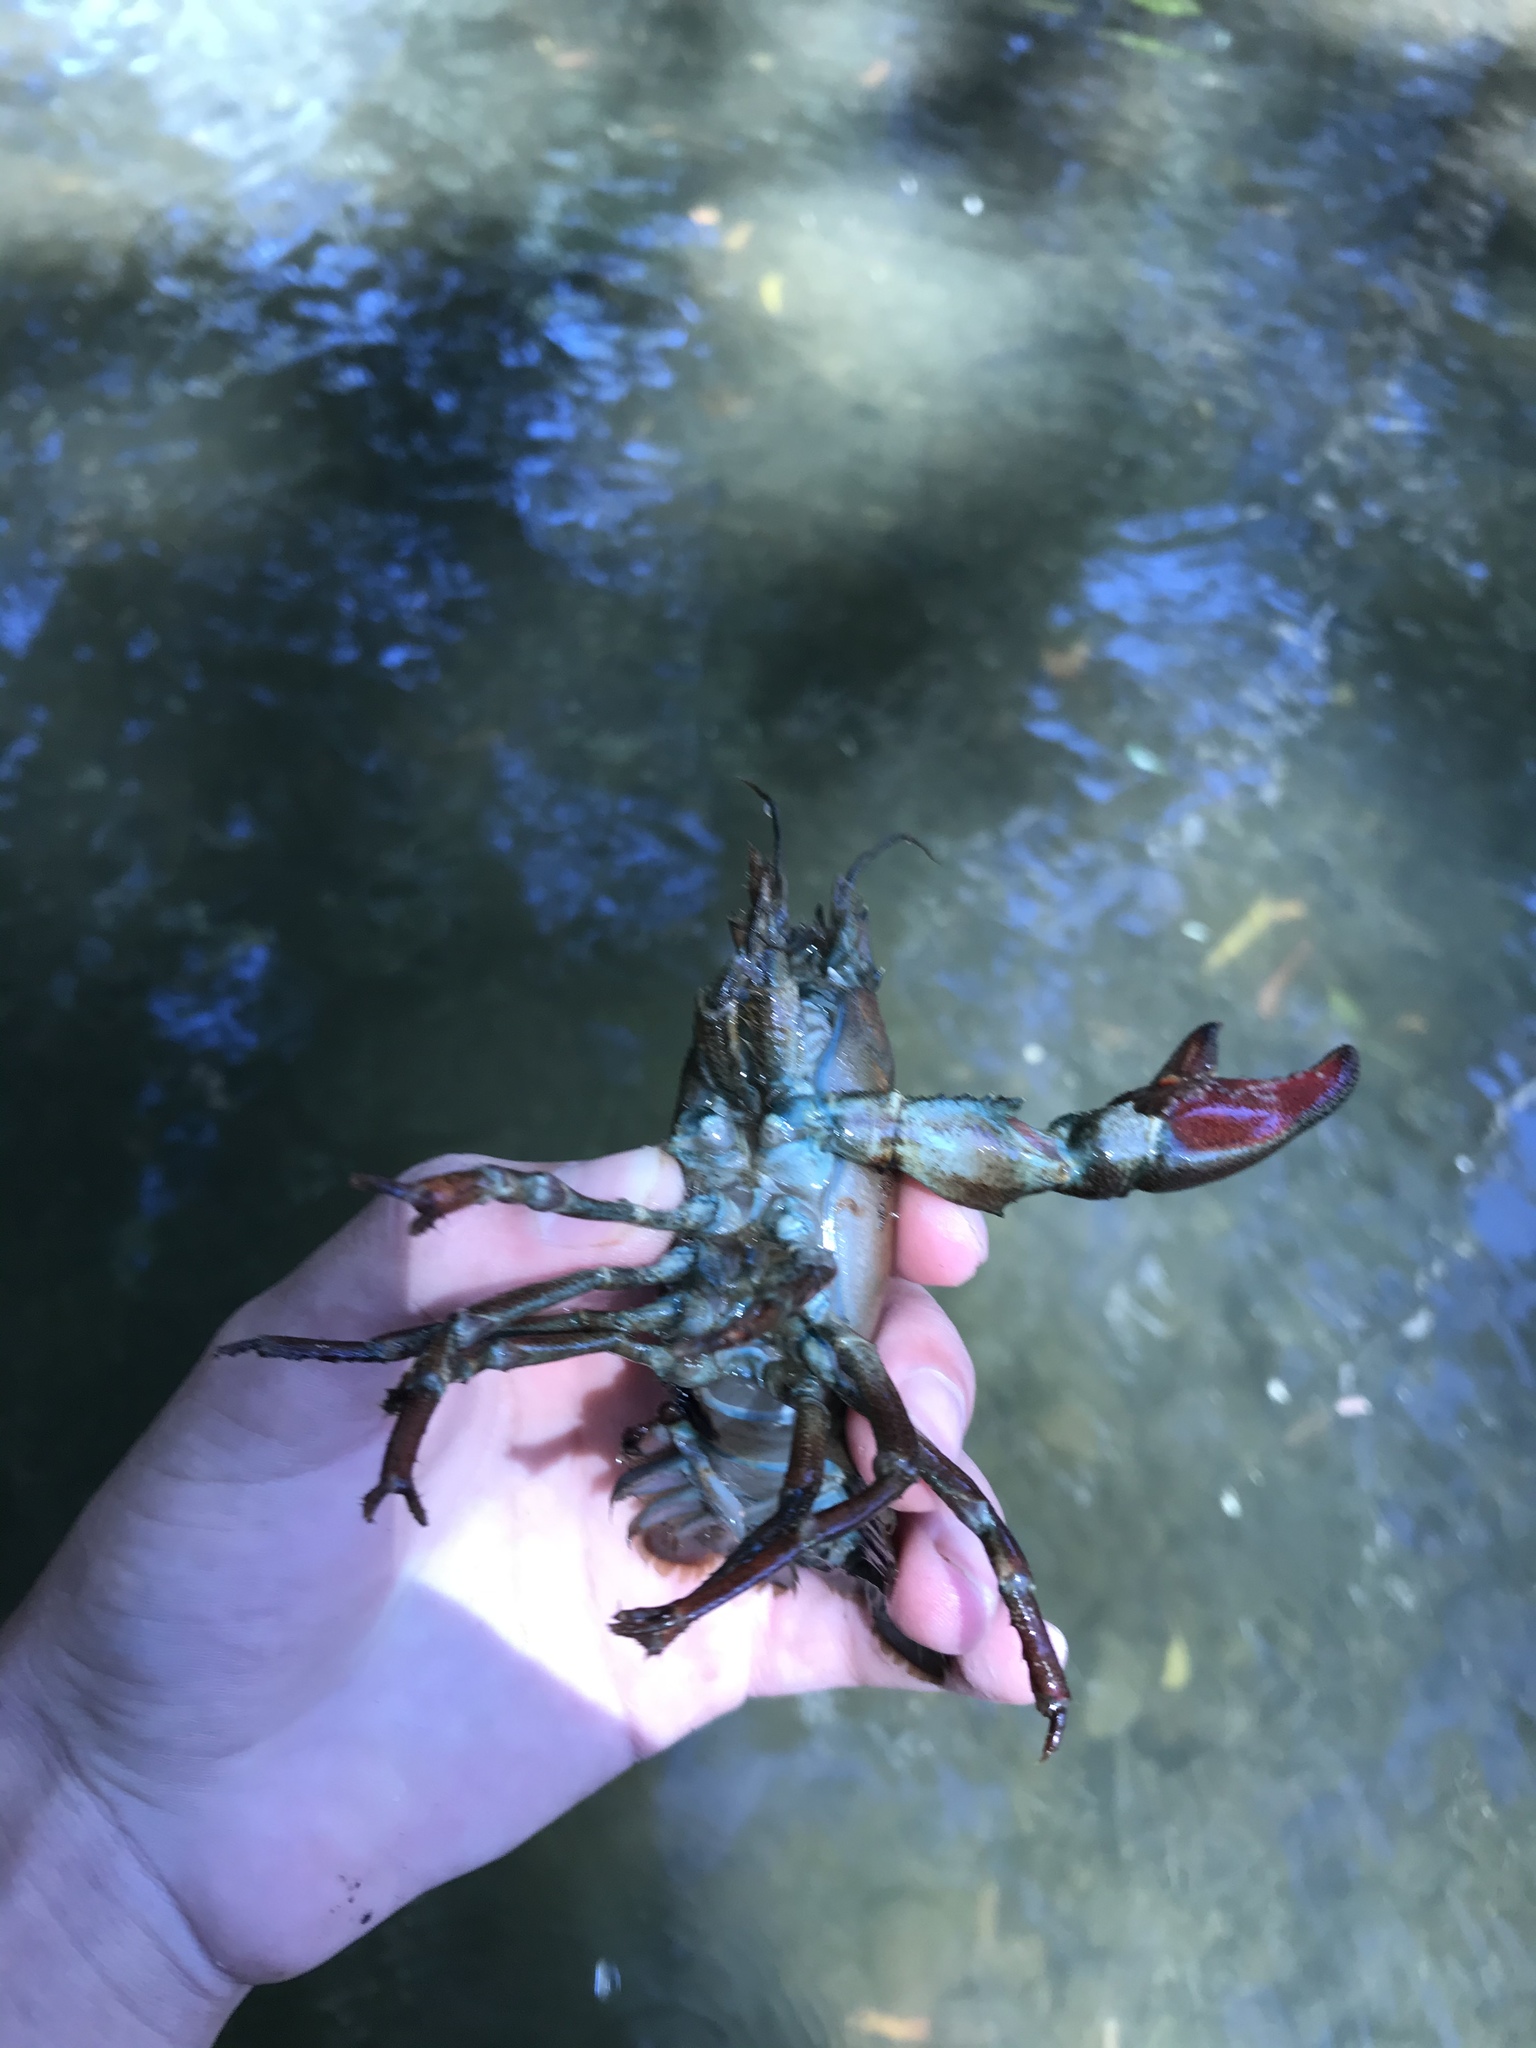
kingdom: Animalia
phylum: Arthropoda
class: Malacostraca
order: Decapoda
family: Astacidae
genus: Pacifastacus
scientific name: Pacifastacus leniusculus
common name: Signal crayfish
